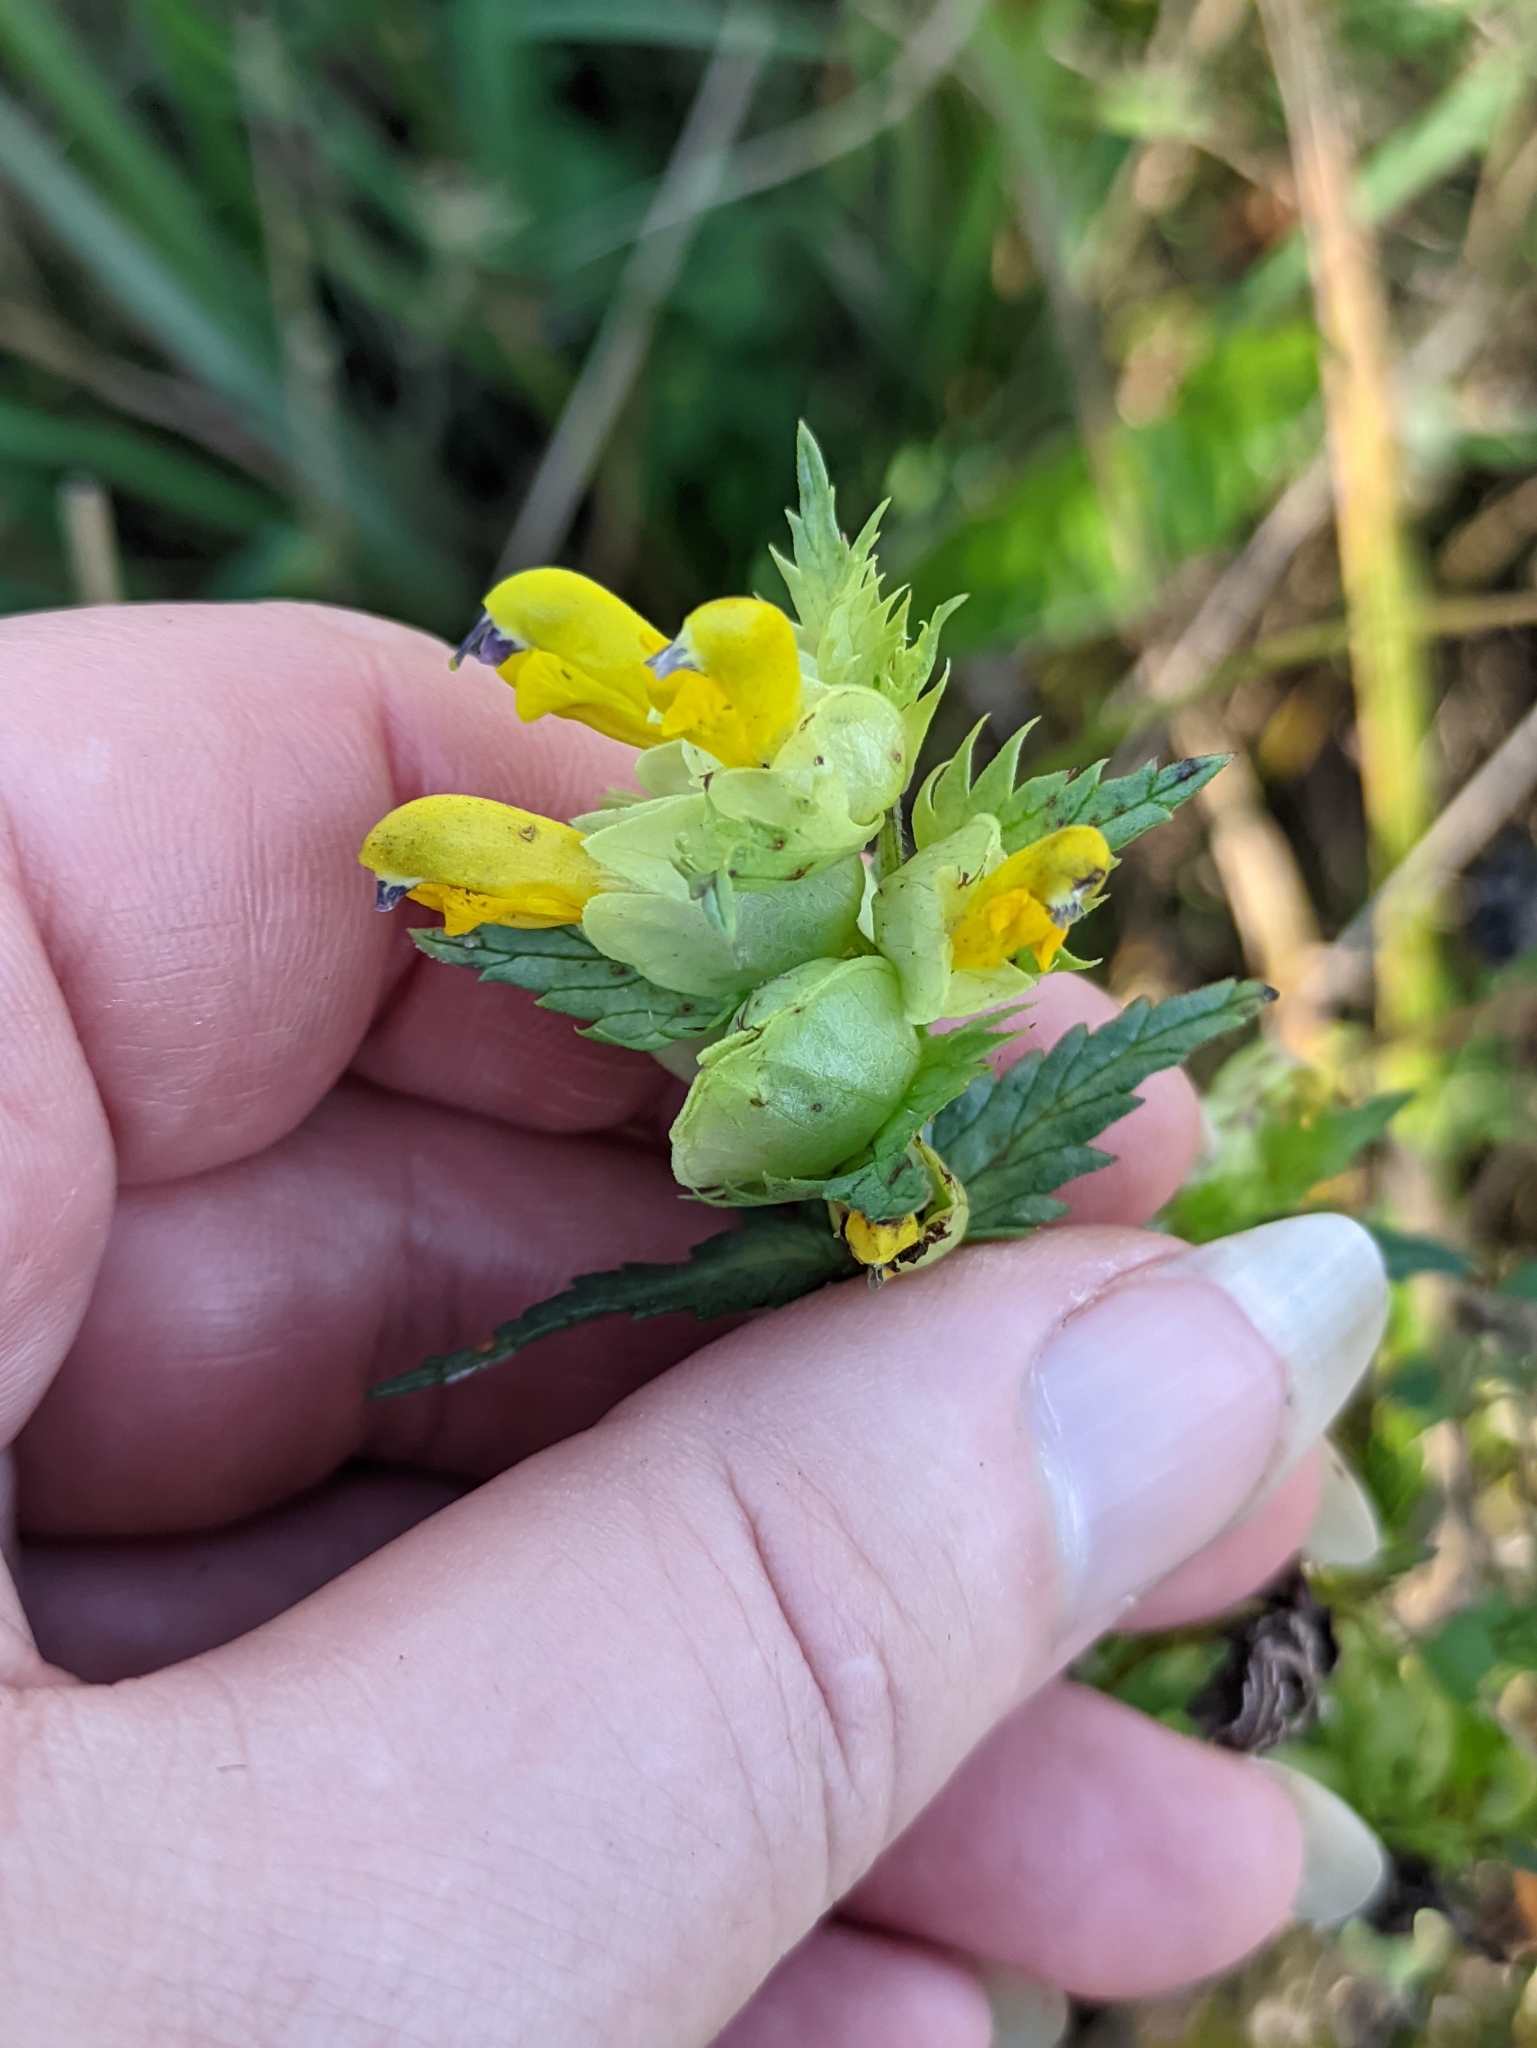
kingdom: Plantae
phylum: Tracheophyta
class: Magnoliopsida
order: Lamiales
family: Orobanchaceae
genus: Rhinanthus
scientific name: Rhinanthus serotinus
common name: Late-flowering yellow rattle
